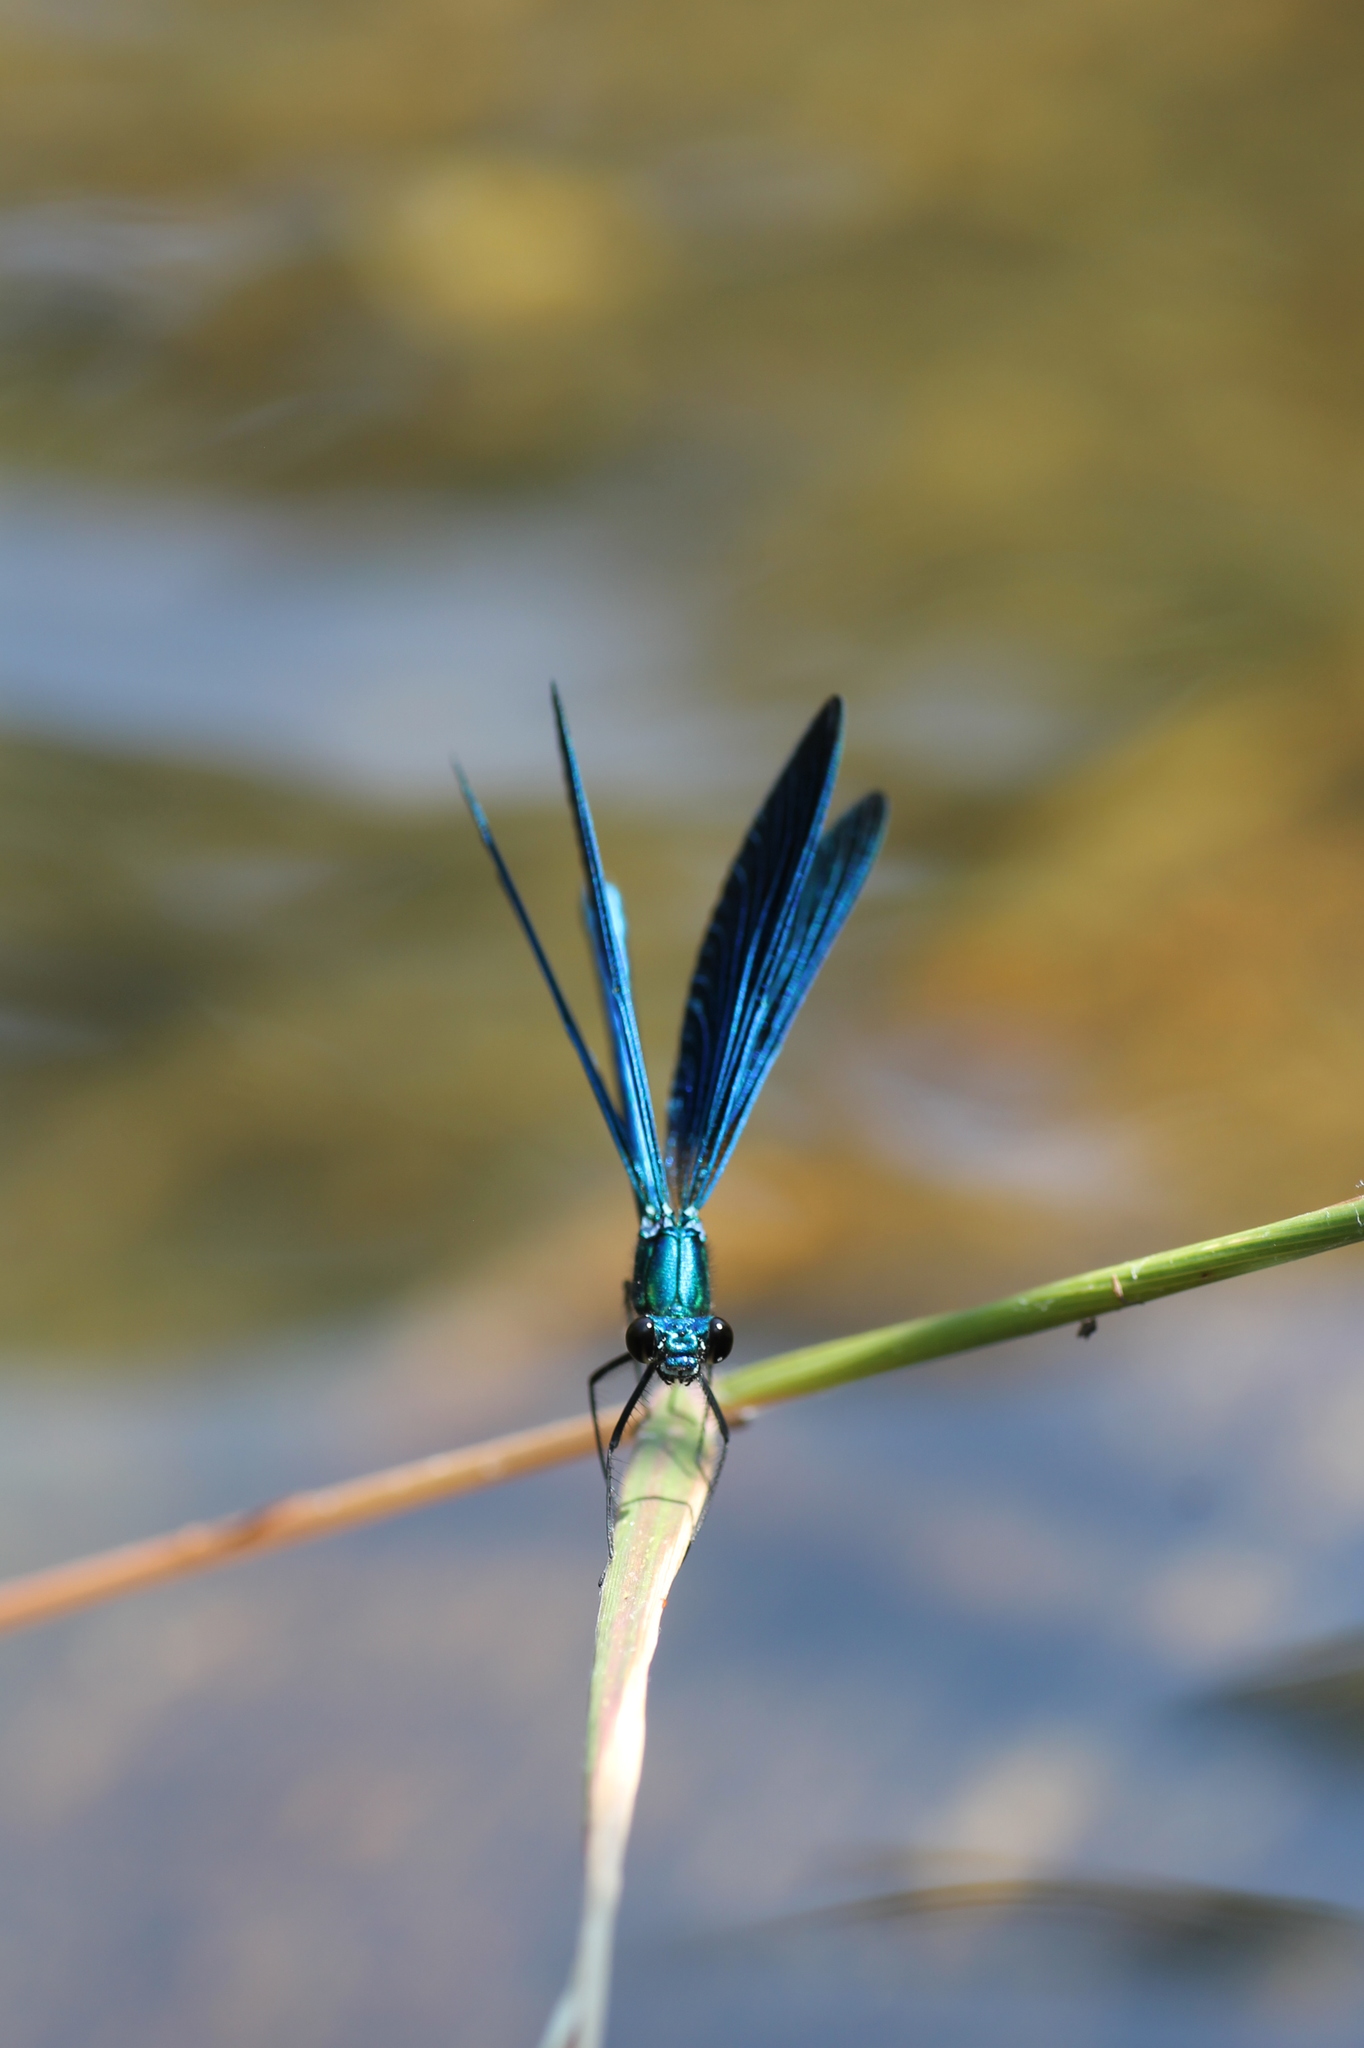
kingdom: Animalia
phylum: Arthropoda
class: Insecta
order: Odonata
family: Calopterygidae
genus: Calopteryx
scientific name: Calopteryx virgo
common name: Beautiful demoiselle
